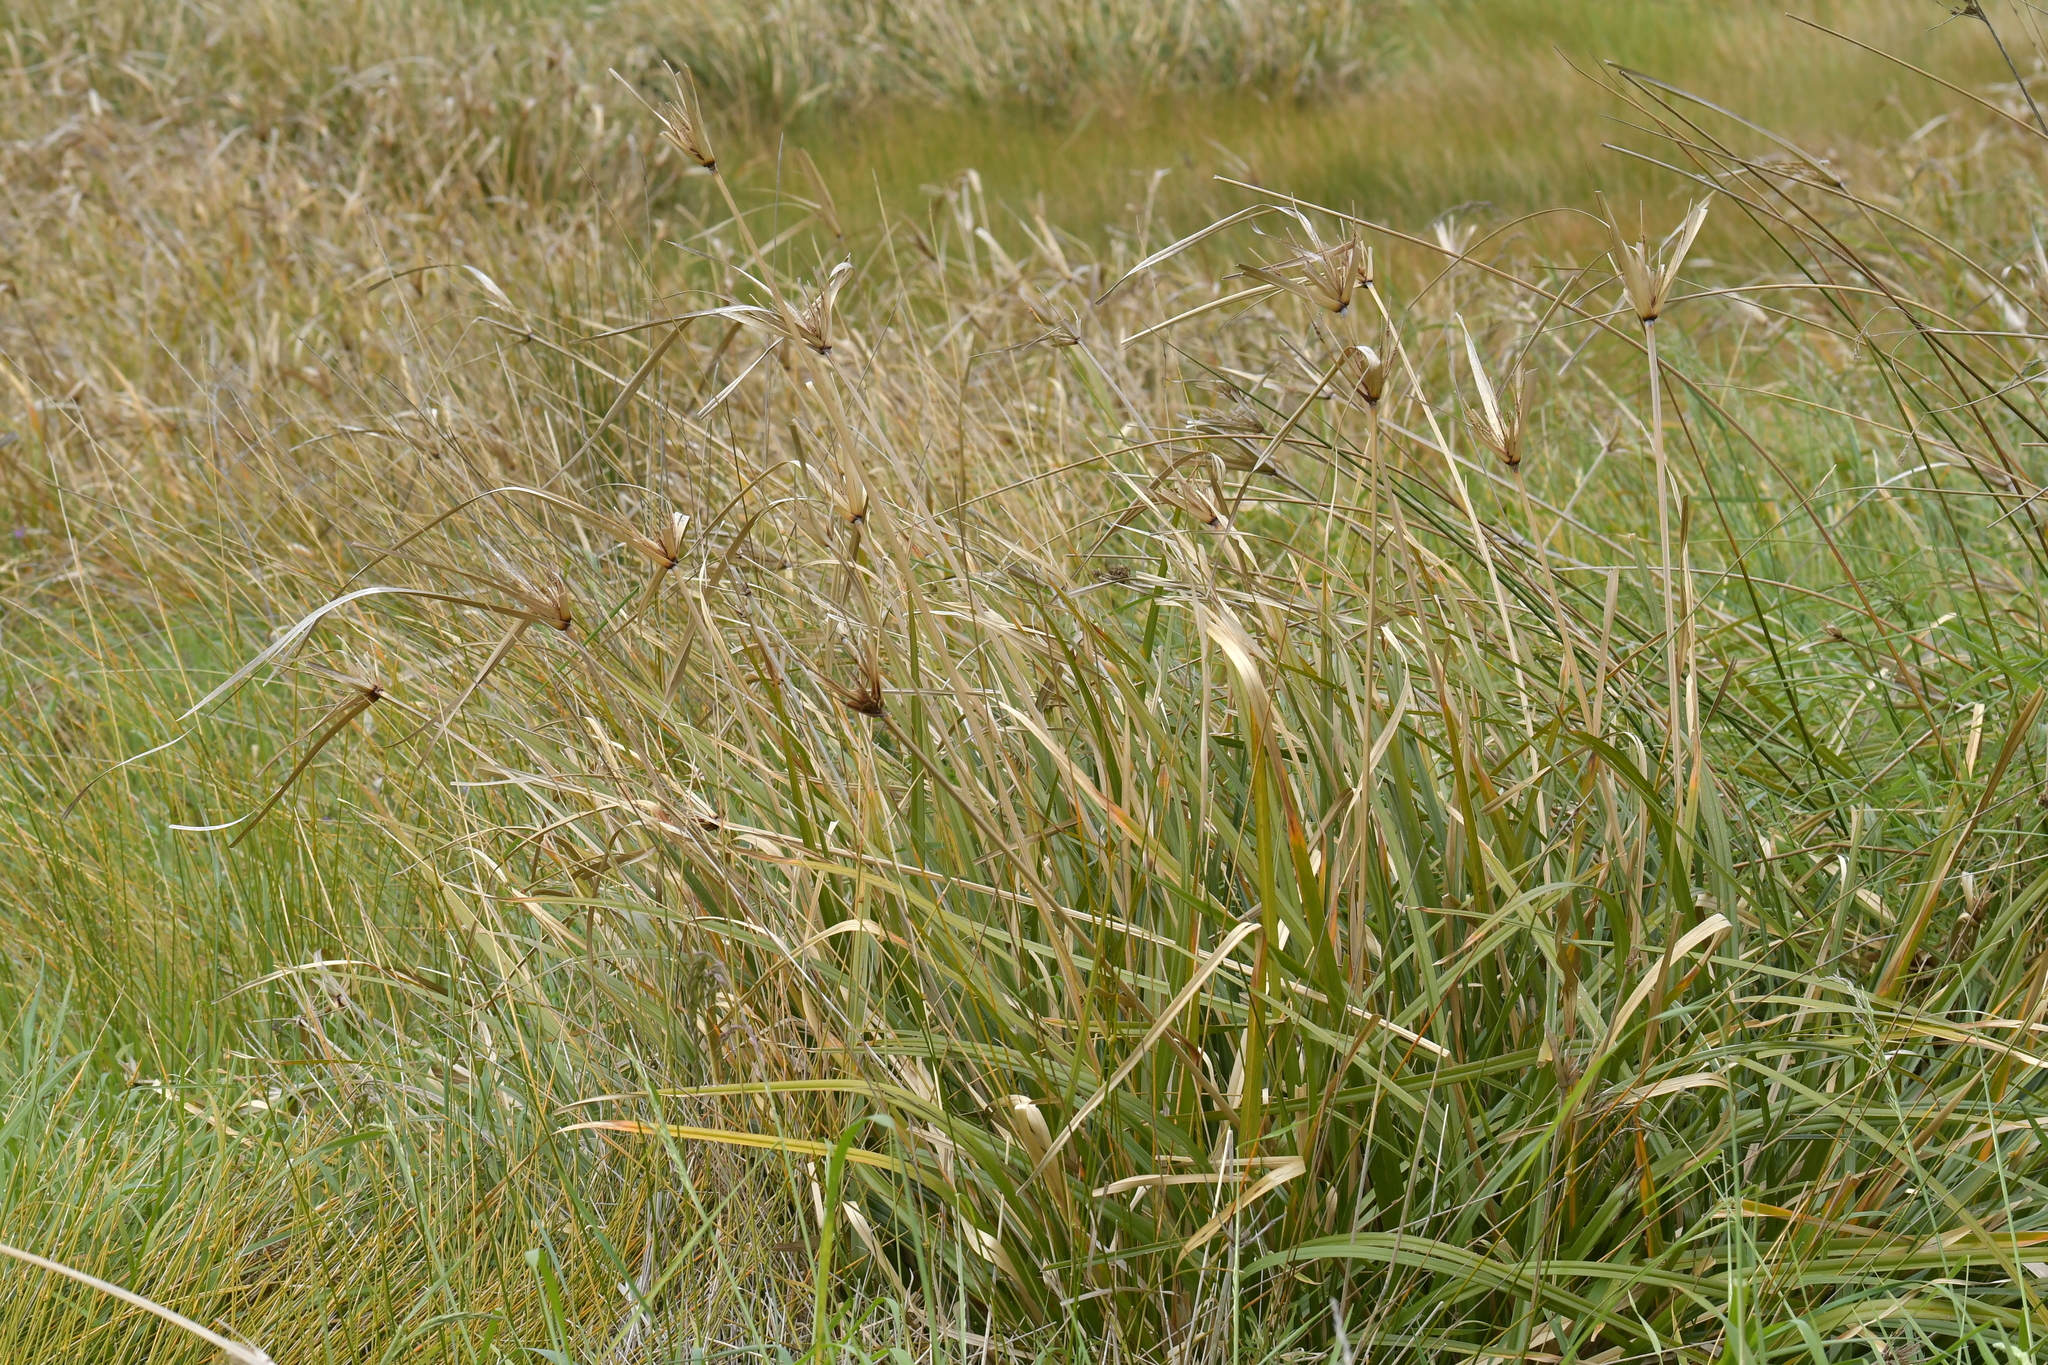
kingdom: Plantae
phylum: Tracheophyta
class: Liliopsida
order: Poales
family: Cyperaceae
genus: Cyperus
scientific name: Cyperus ustulatus
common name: Giant umbrella-sedge
